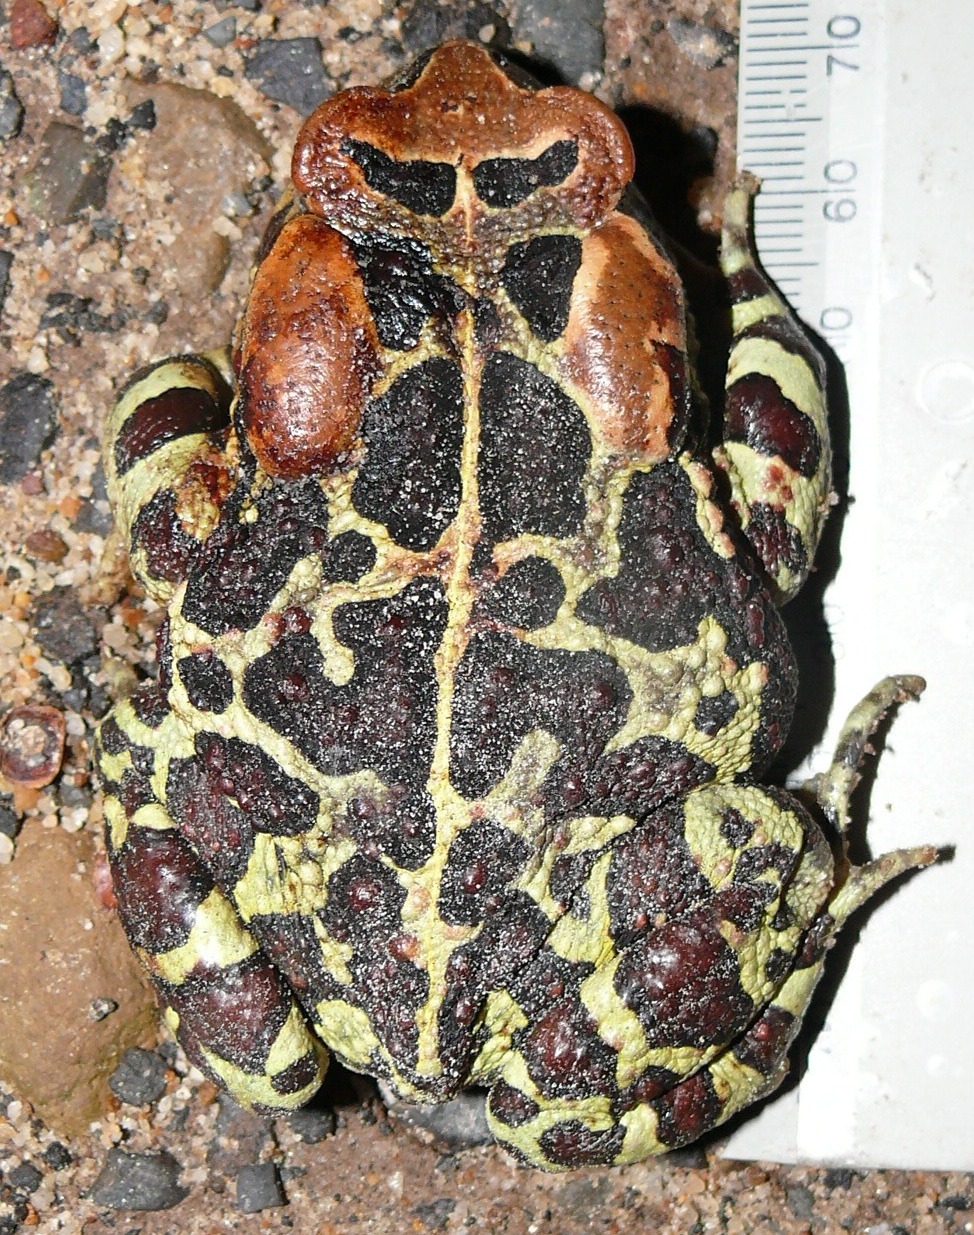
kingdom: Animalia
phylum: Chordata
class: Amphibia
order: Anura
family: Bufonidae
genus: Sclerophrys
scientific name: Sclerophrys pantherina
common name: Panther toad
